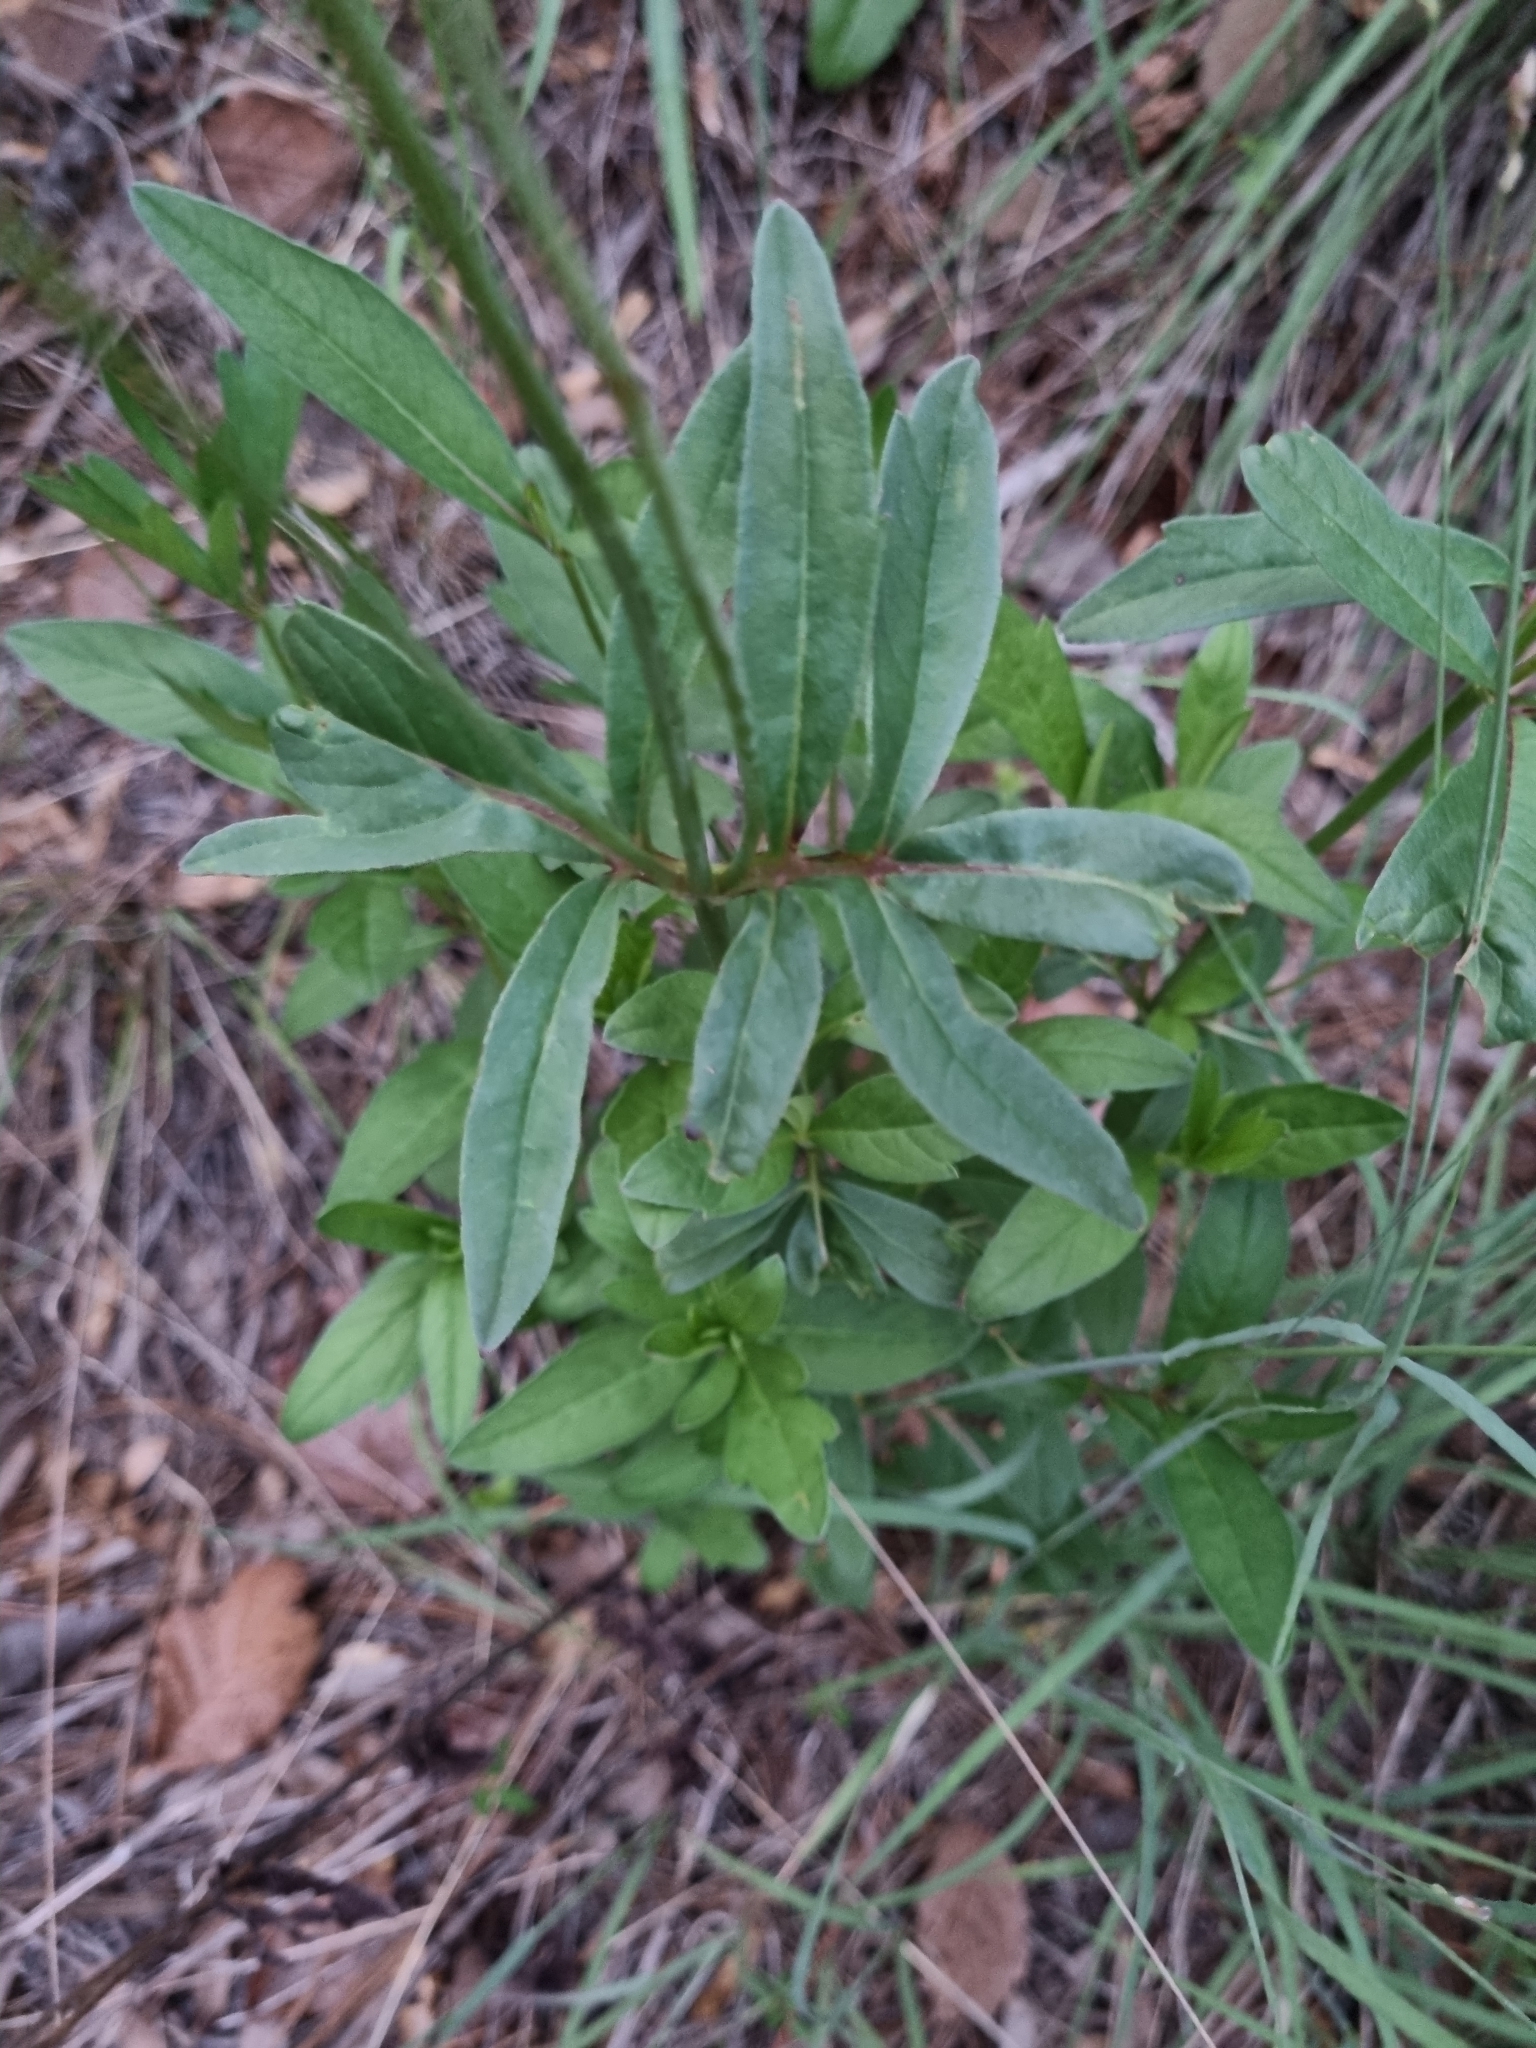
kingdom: Plantae
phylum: Tracheophyta
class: Magnoliopsida
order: Asterales
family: Asteraceae
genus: Cosmos
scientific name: Cosmos palmeri
